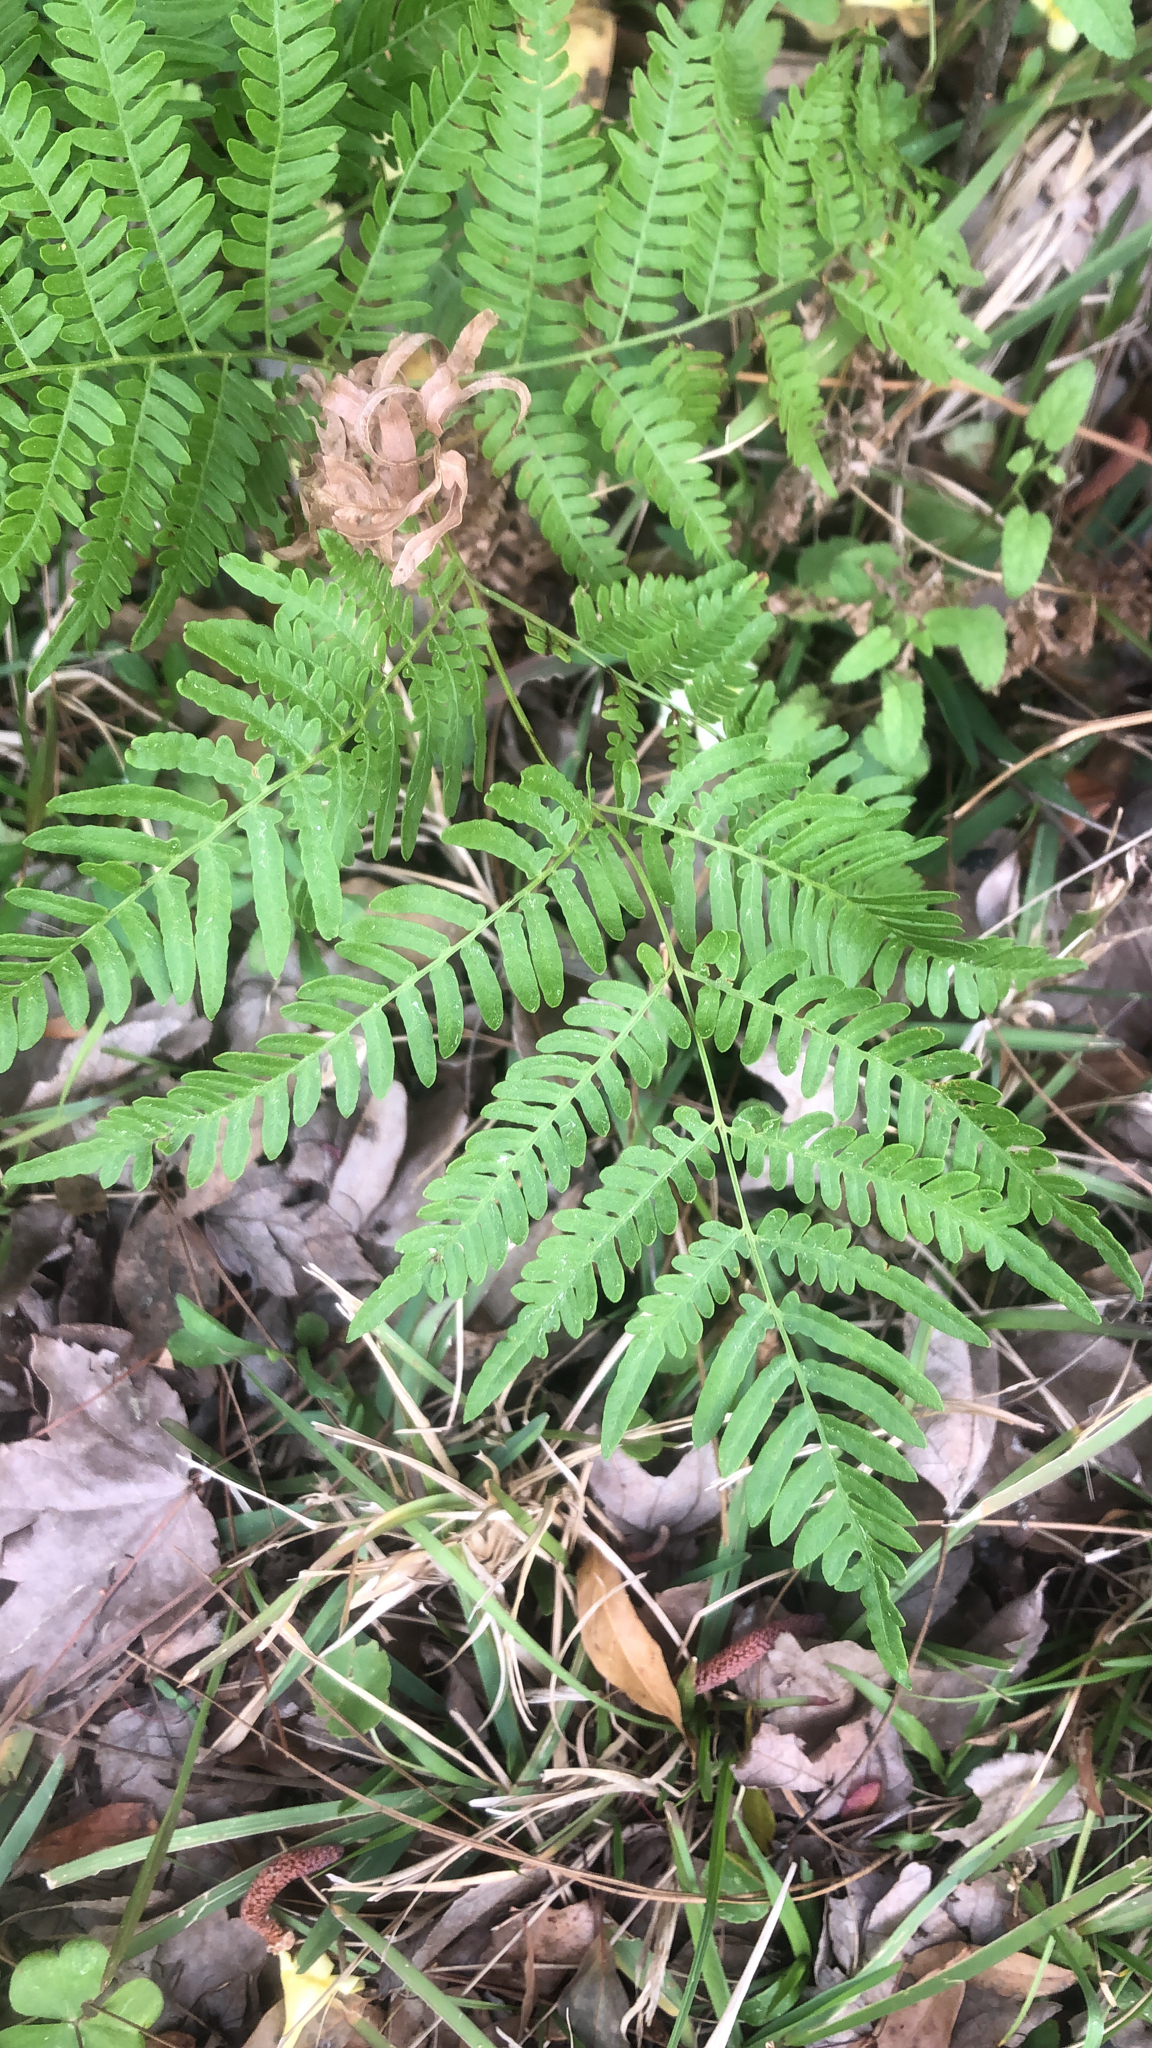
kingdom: Plantae
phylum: Tracheophyta
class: Polypodiopsida
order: Polypodiales
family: Dennstaedtiaceae
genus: Pteridium
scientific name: Pteridium
